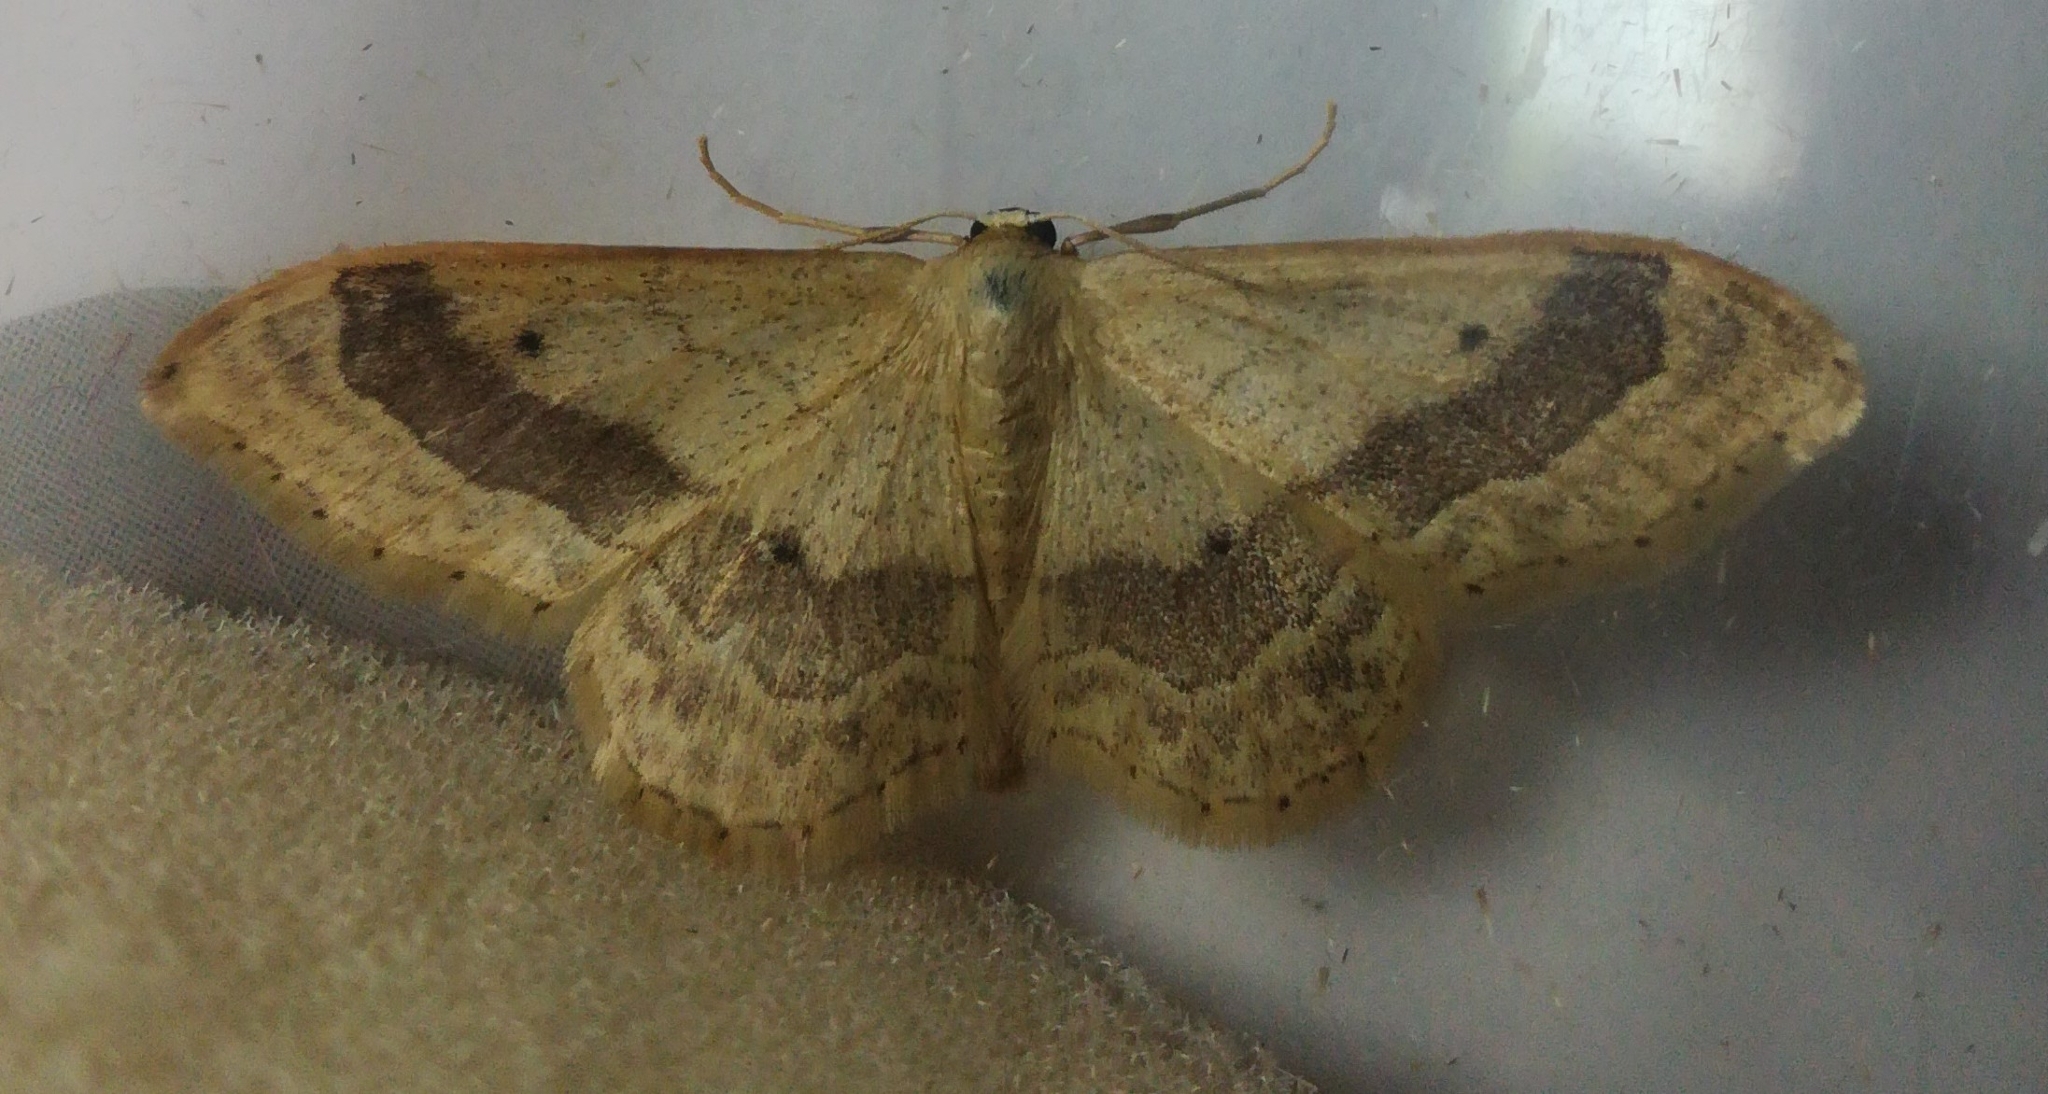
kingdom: Animalia
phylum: Arthropoda
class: Insecta
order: Lepidoptera
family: Geometridae
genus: Idaea
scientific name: Idaea aversata
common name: Riband wave
